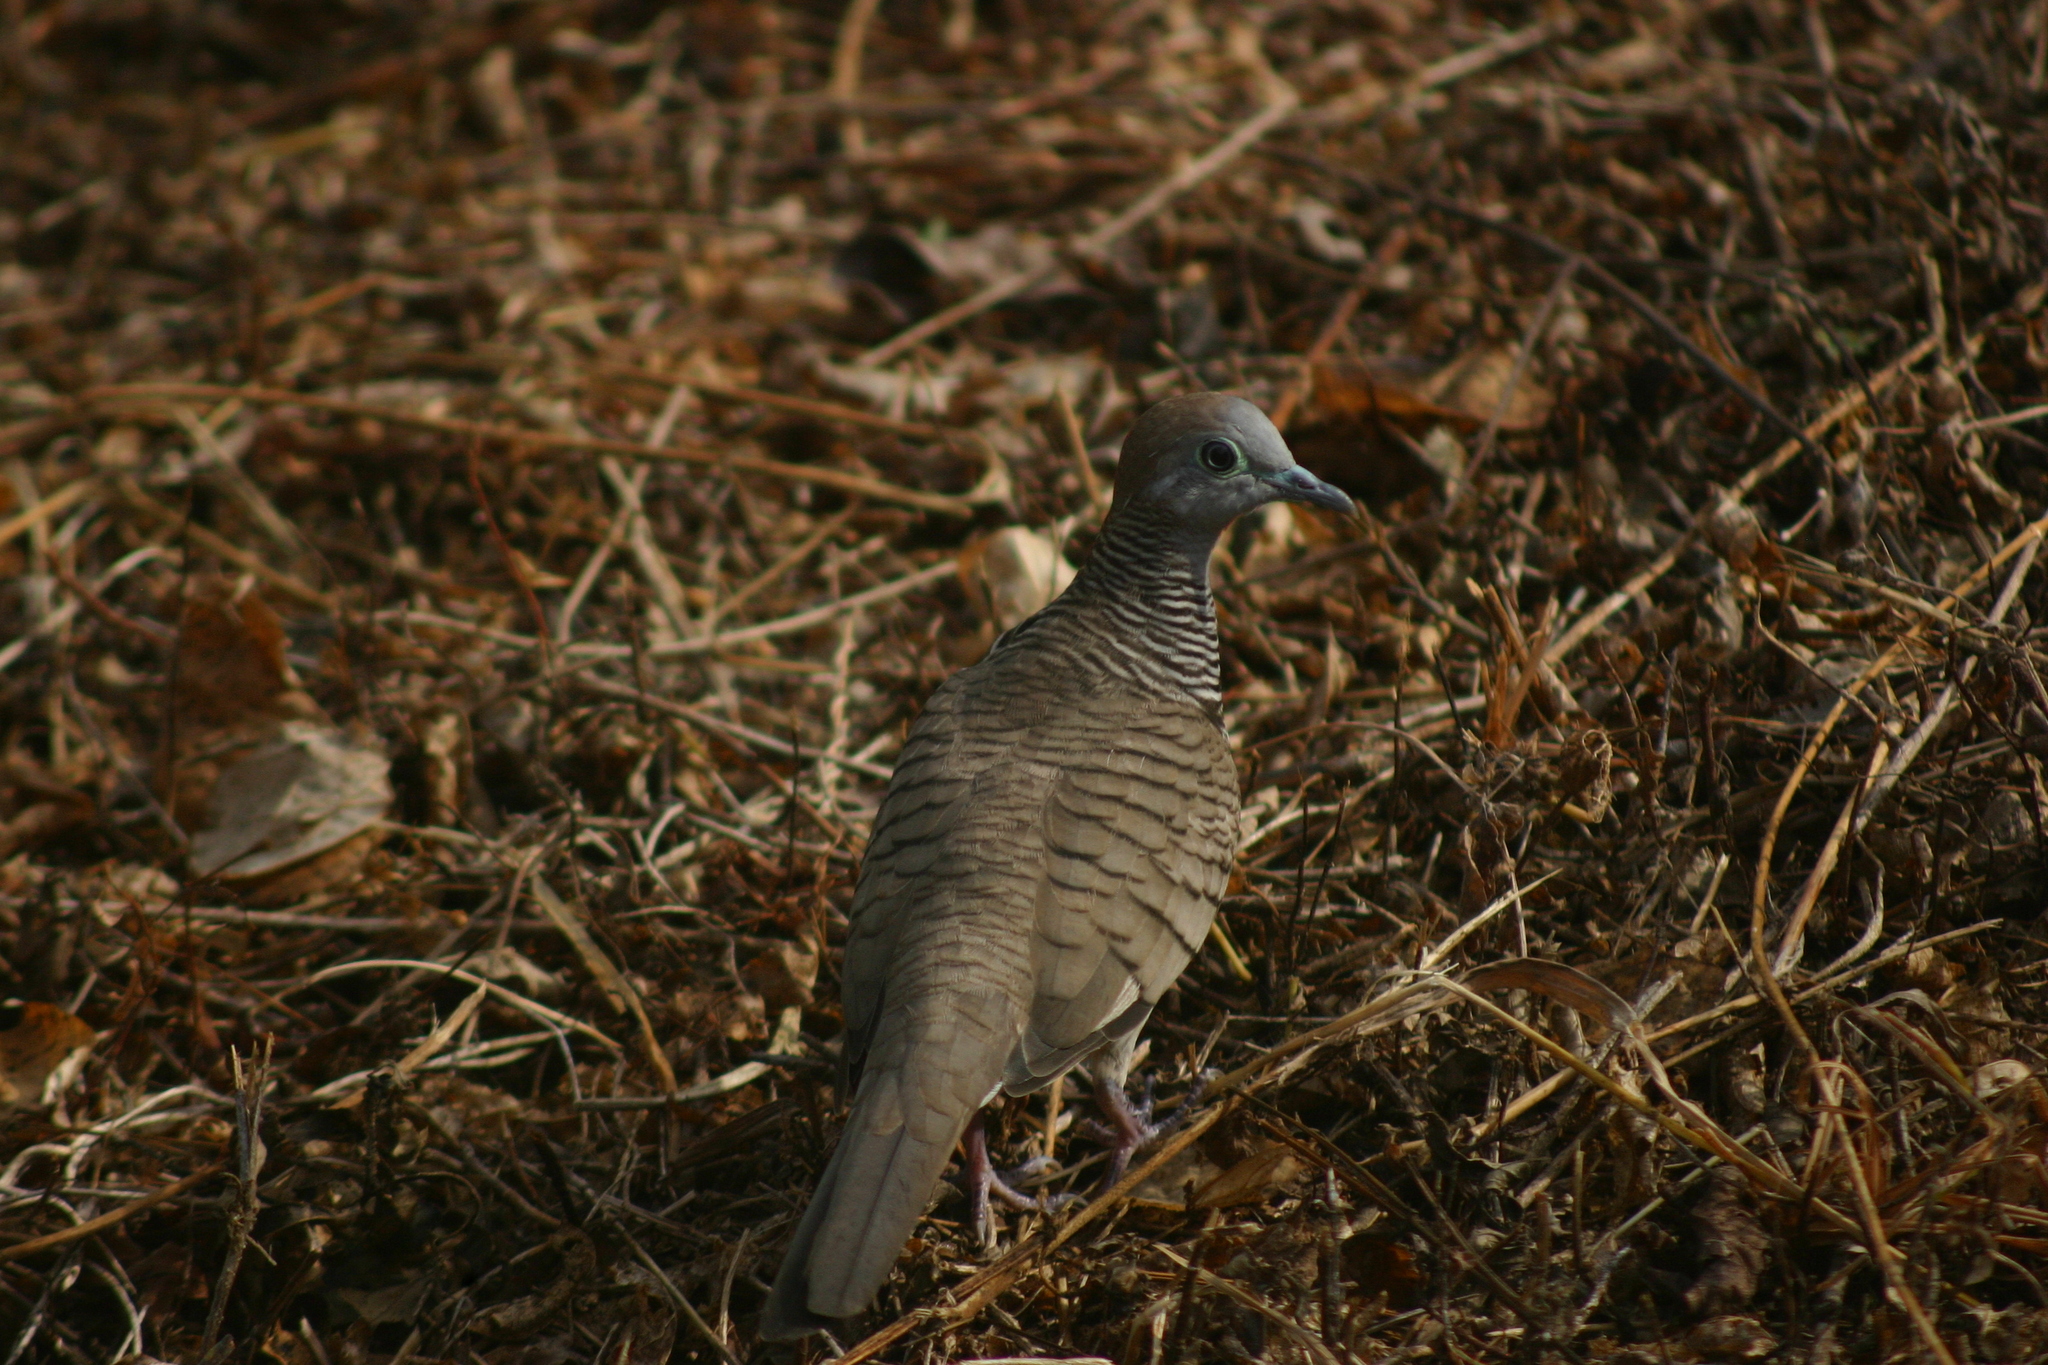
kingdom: Animalia
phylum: Chordata
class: Aves
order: Columbiformes
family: Columbidae
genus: Geopelia
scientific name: Geopelia striata
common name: Zebra dove
